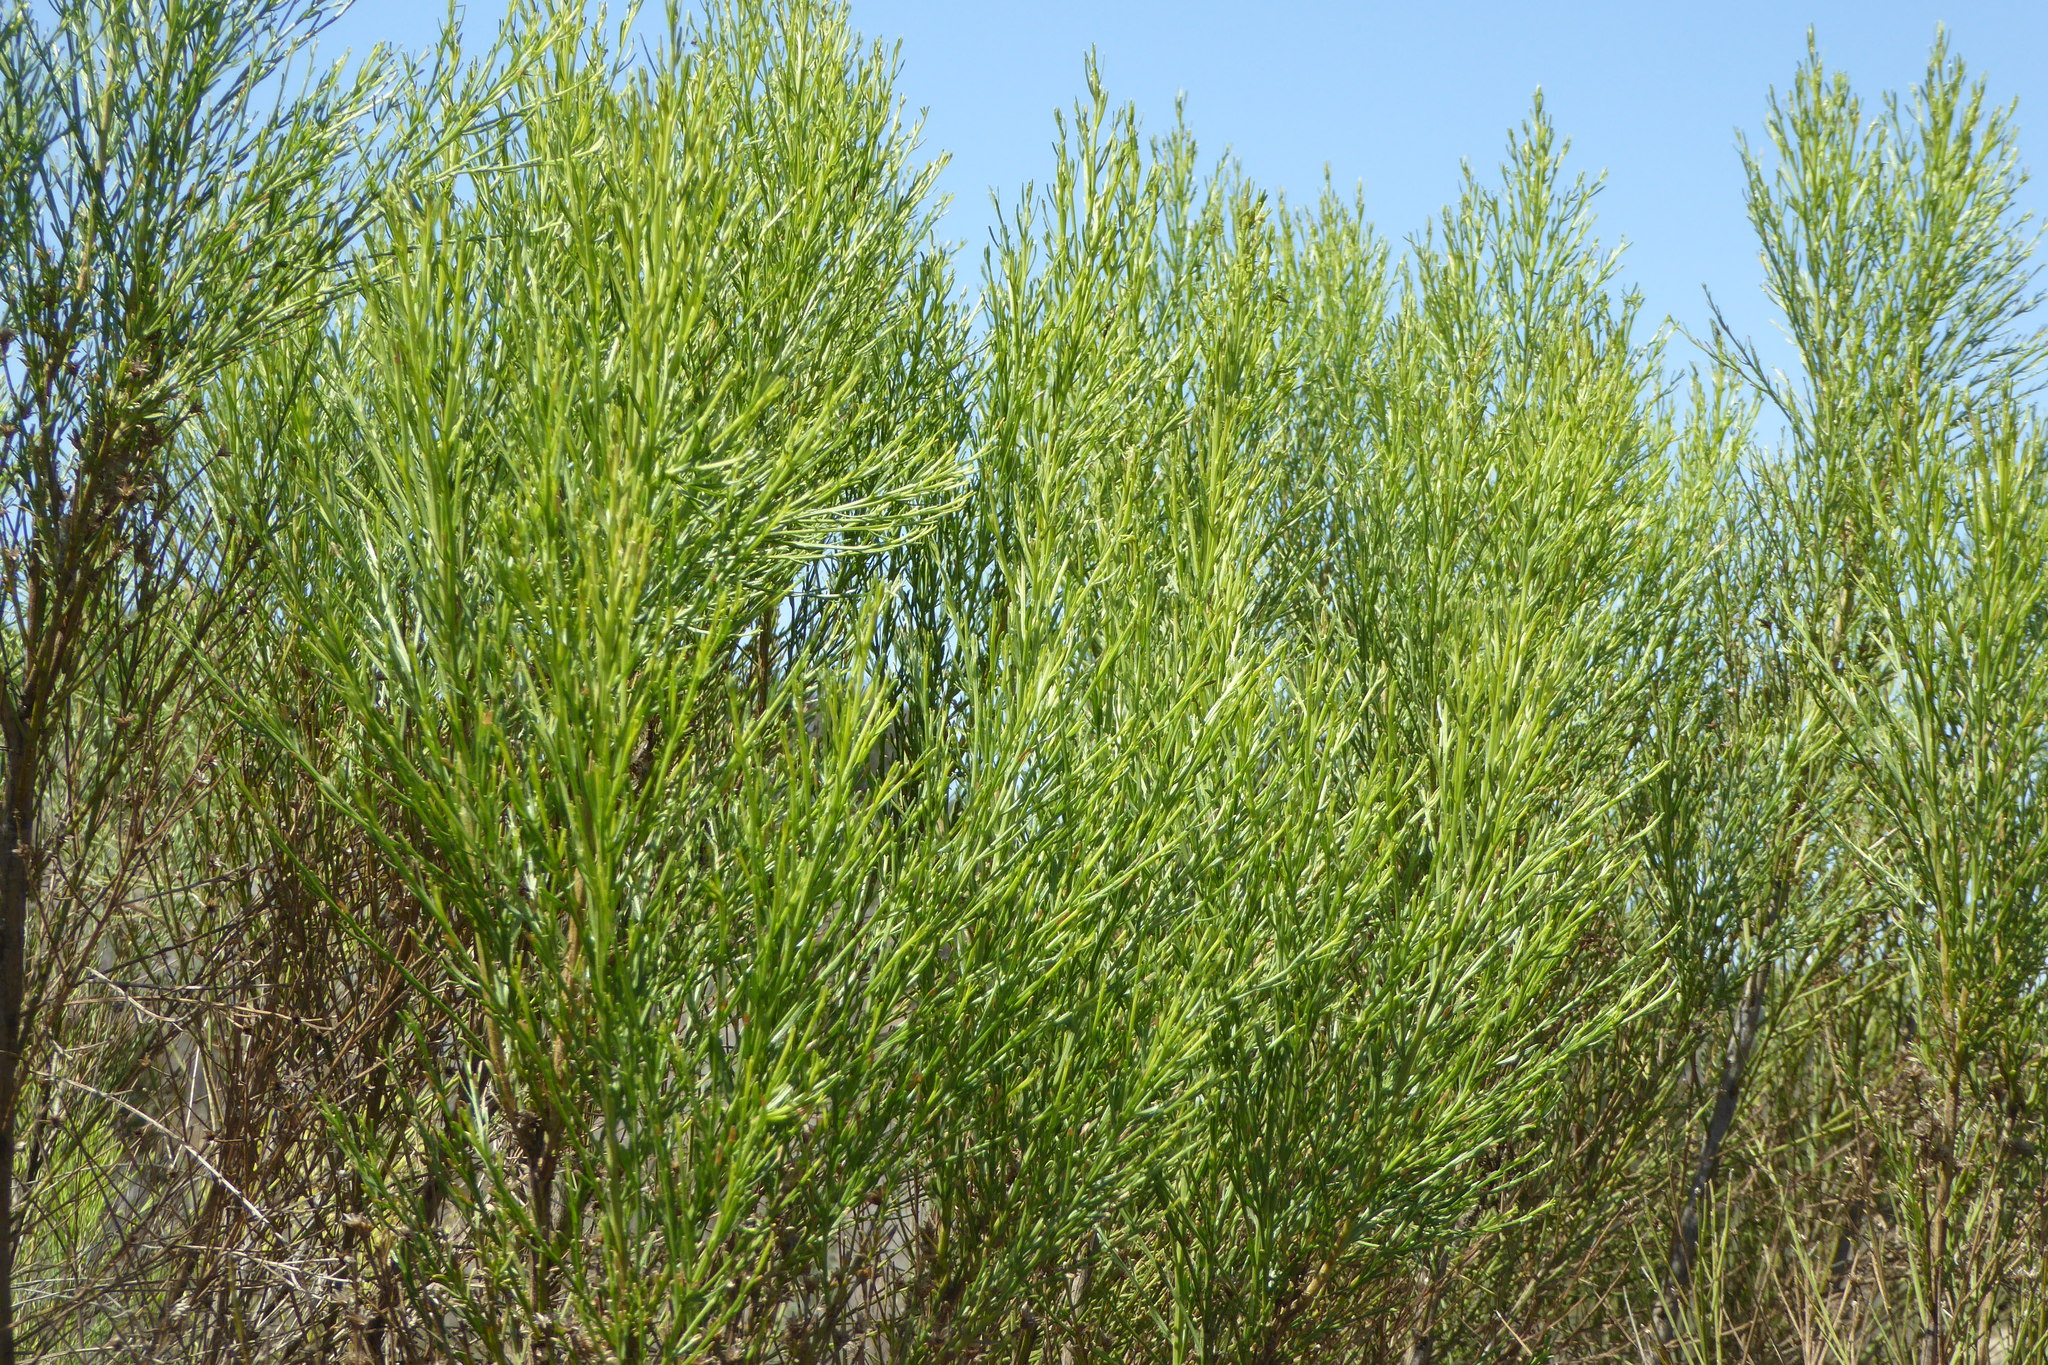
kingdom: Plantae
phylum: Tracheophyta
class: Magnoliopsida
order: Asterales
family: Asteraceae
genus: Baccharis
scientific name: Baccharis sarothroides
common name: Desert-broom
